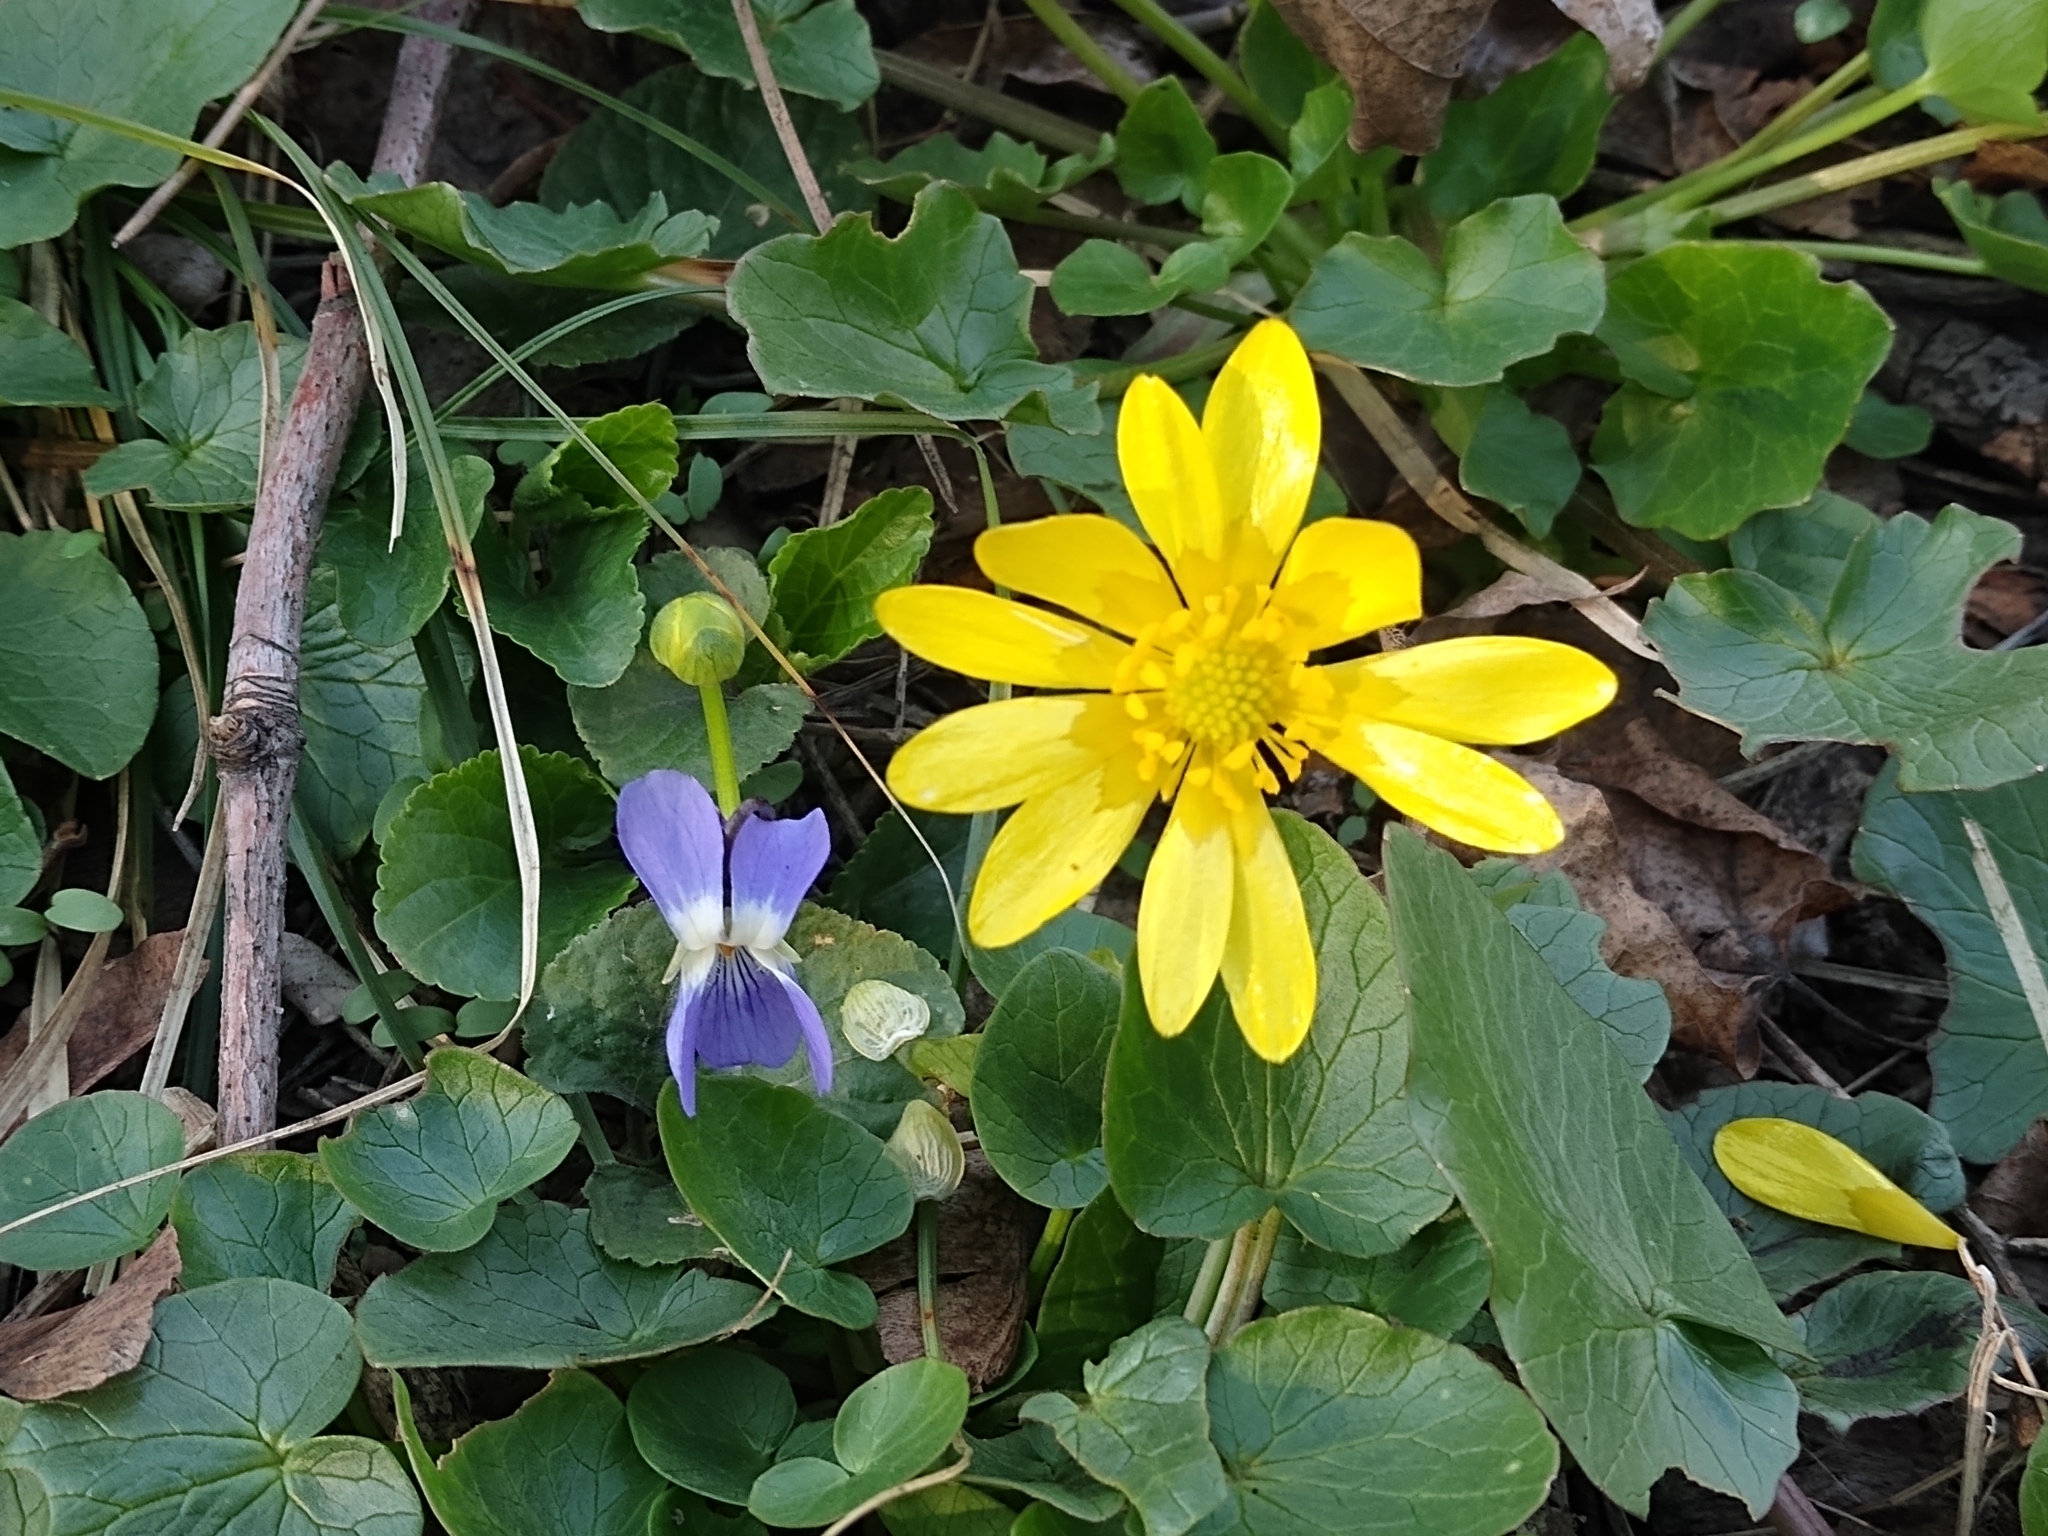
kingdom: Plantae
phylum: Tracheophyta
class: Magnoliopsida
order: Ranunculales
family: Ranunculaceae
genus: Ficaria
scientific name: Ficaria verna
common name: Lesser celandine
